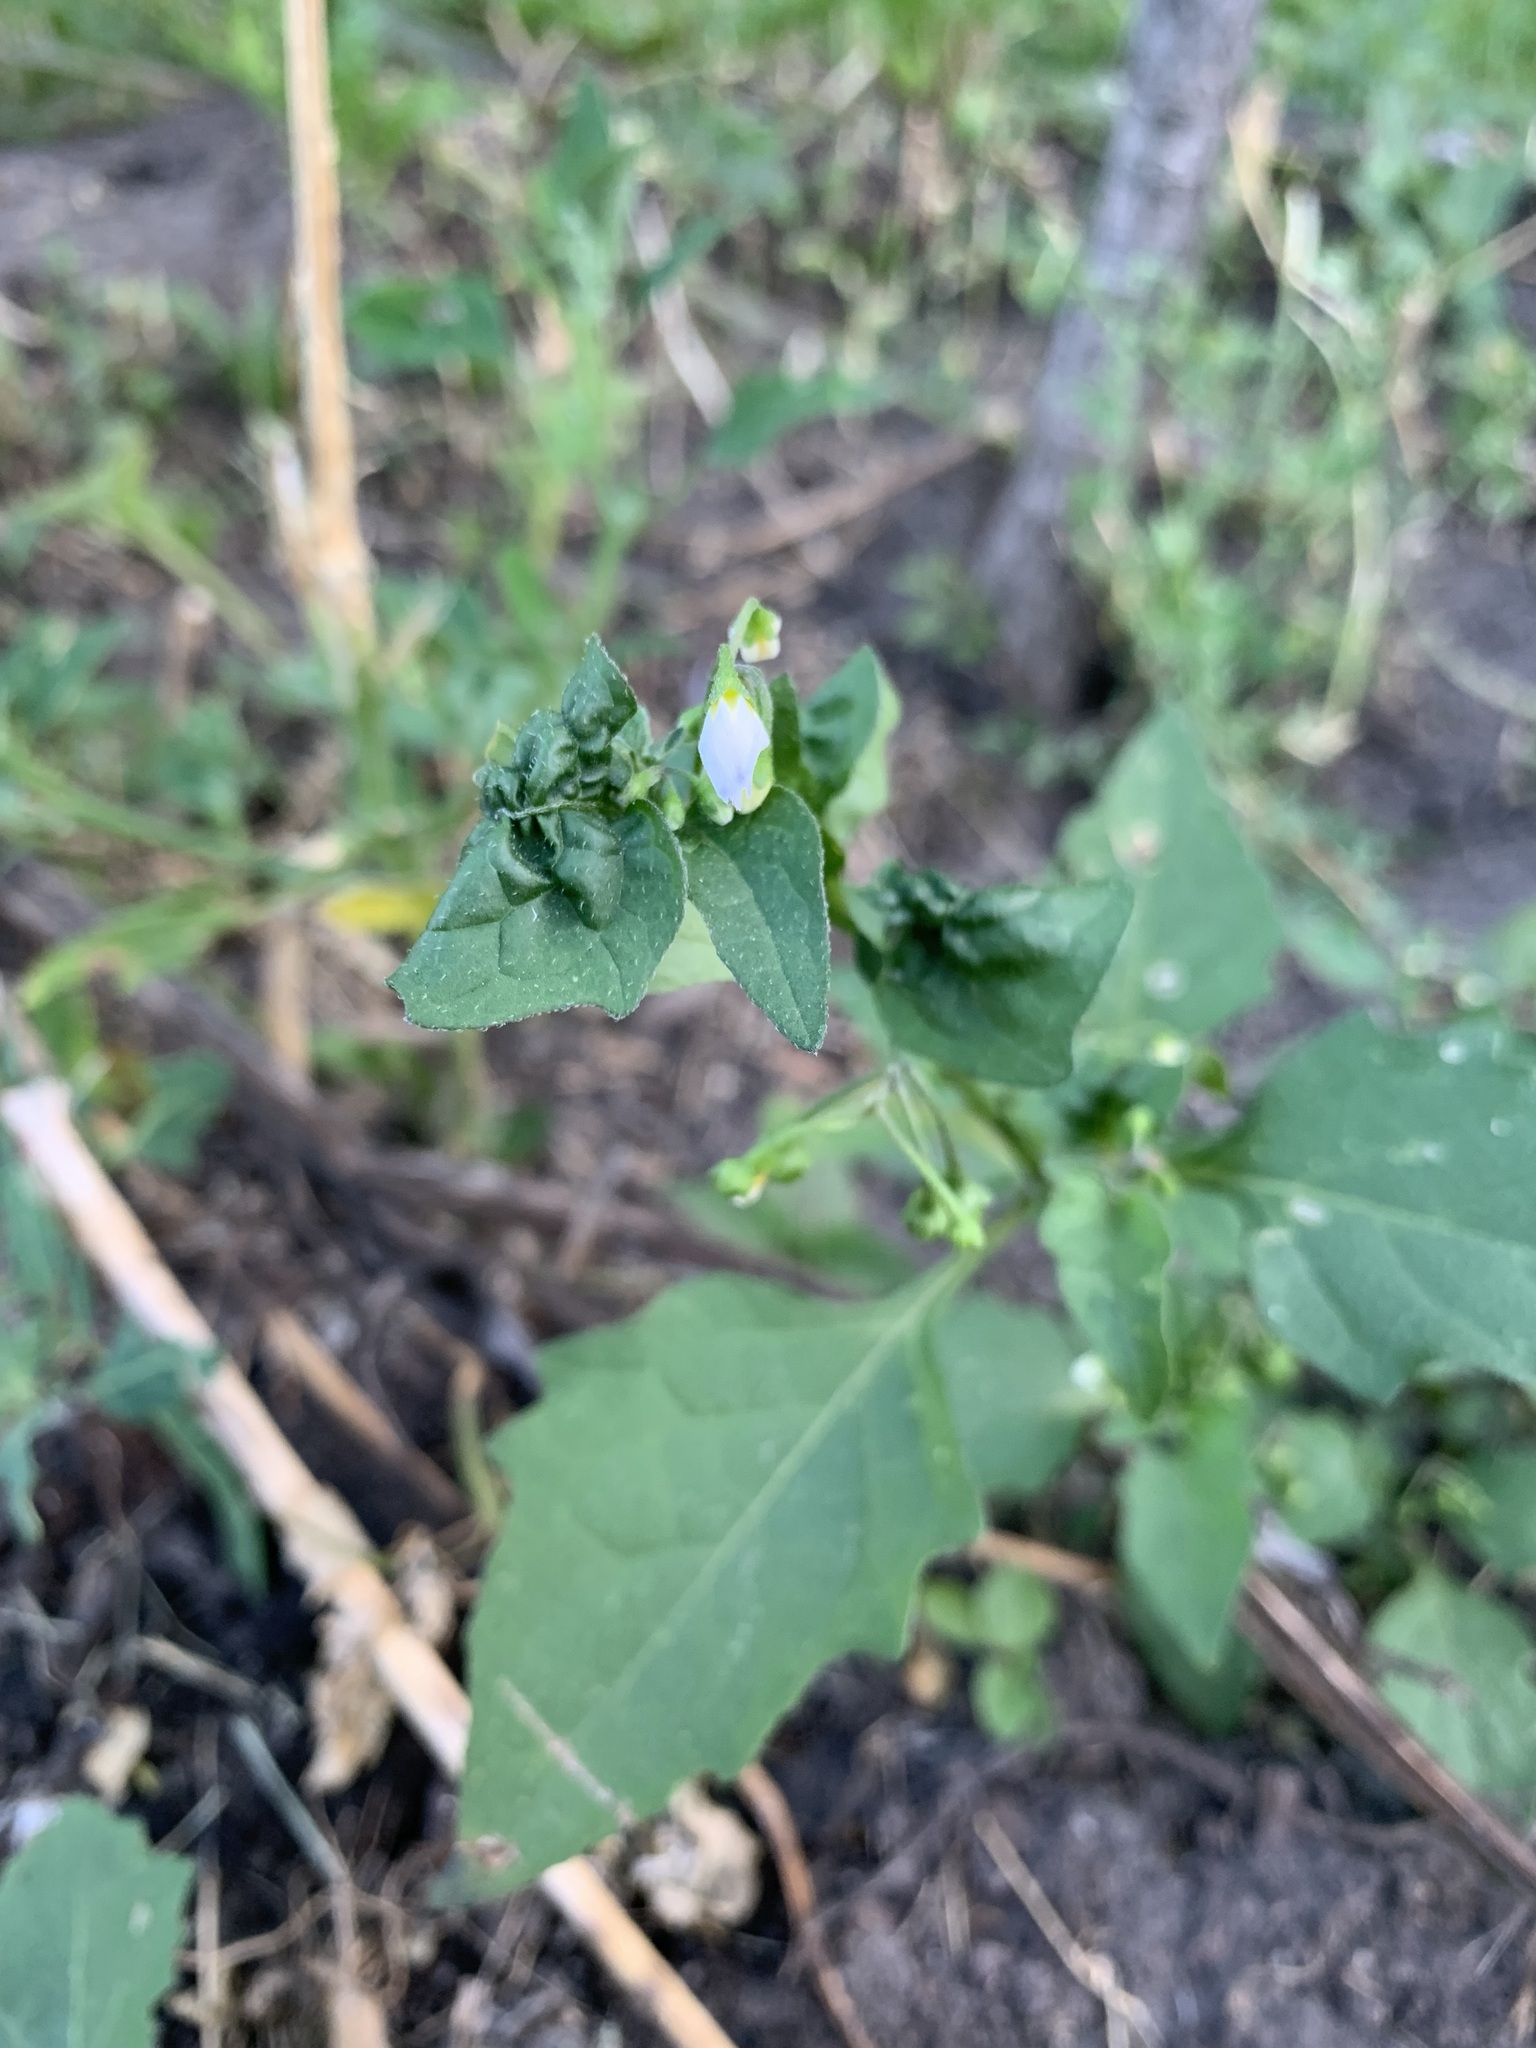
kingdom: Plantae
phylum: Tracheophyta
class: Magnoliopsida
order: Solanales
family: Solanaceae
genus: Solanum
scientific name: Solanum nigrum
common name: Black nightshade
